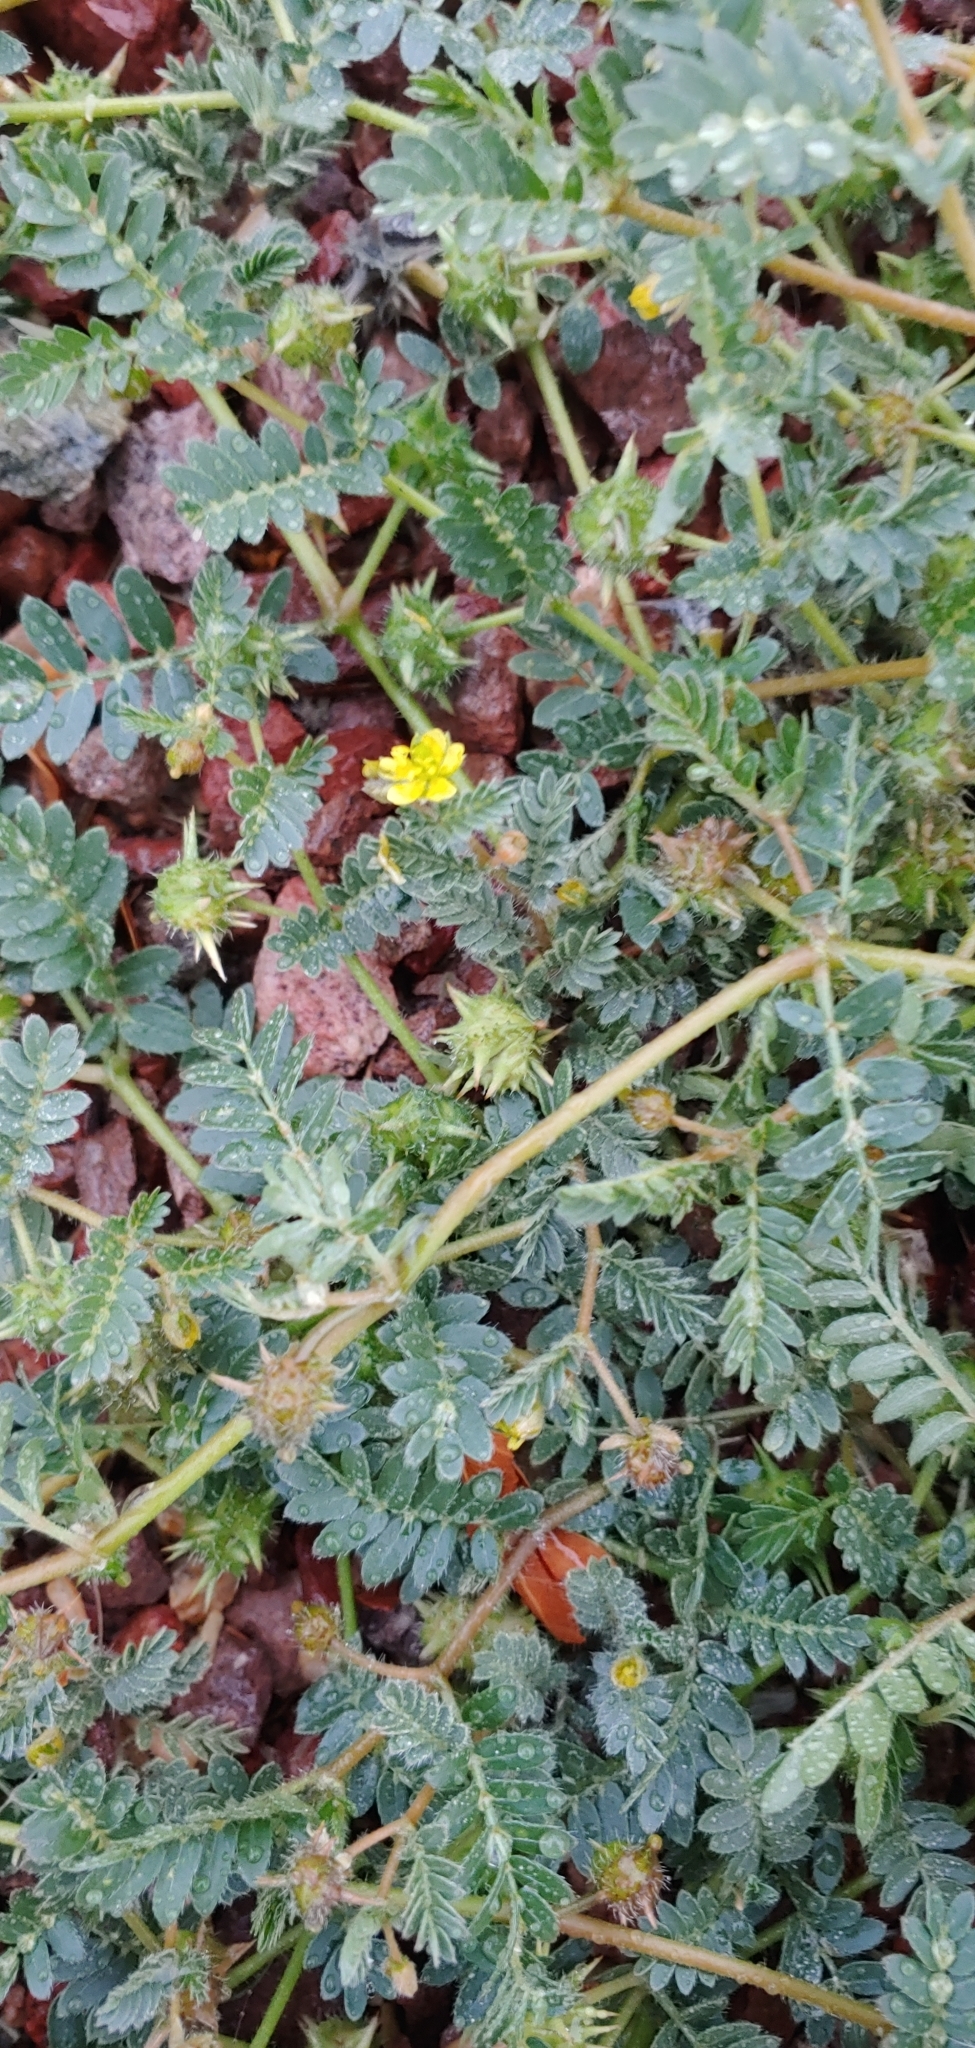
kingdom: Plantae
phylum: Tracheophyta
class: Magnoliopsida
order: Zygophyllales
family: Zygophyllaceae
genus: Tribulus
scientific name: Tribulus terrestris
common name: Puncturevine
